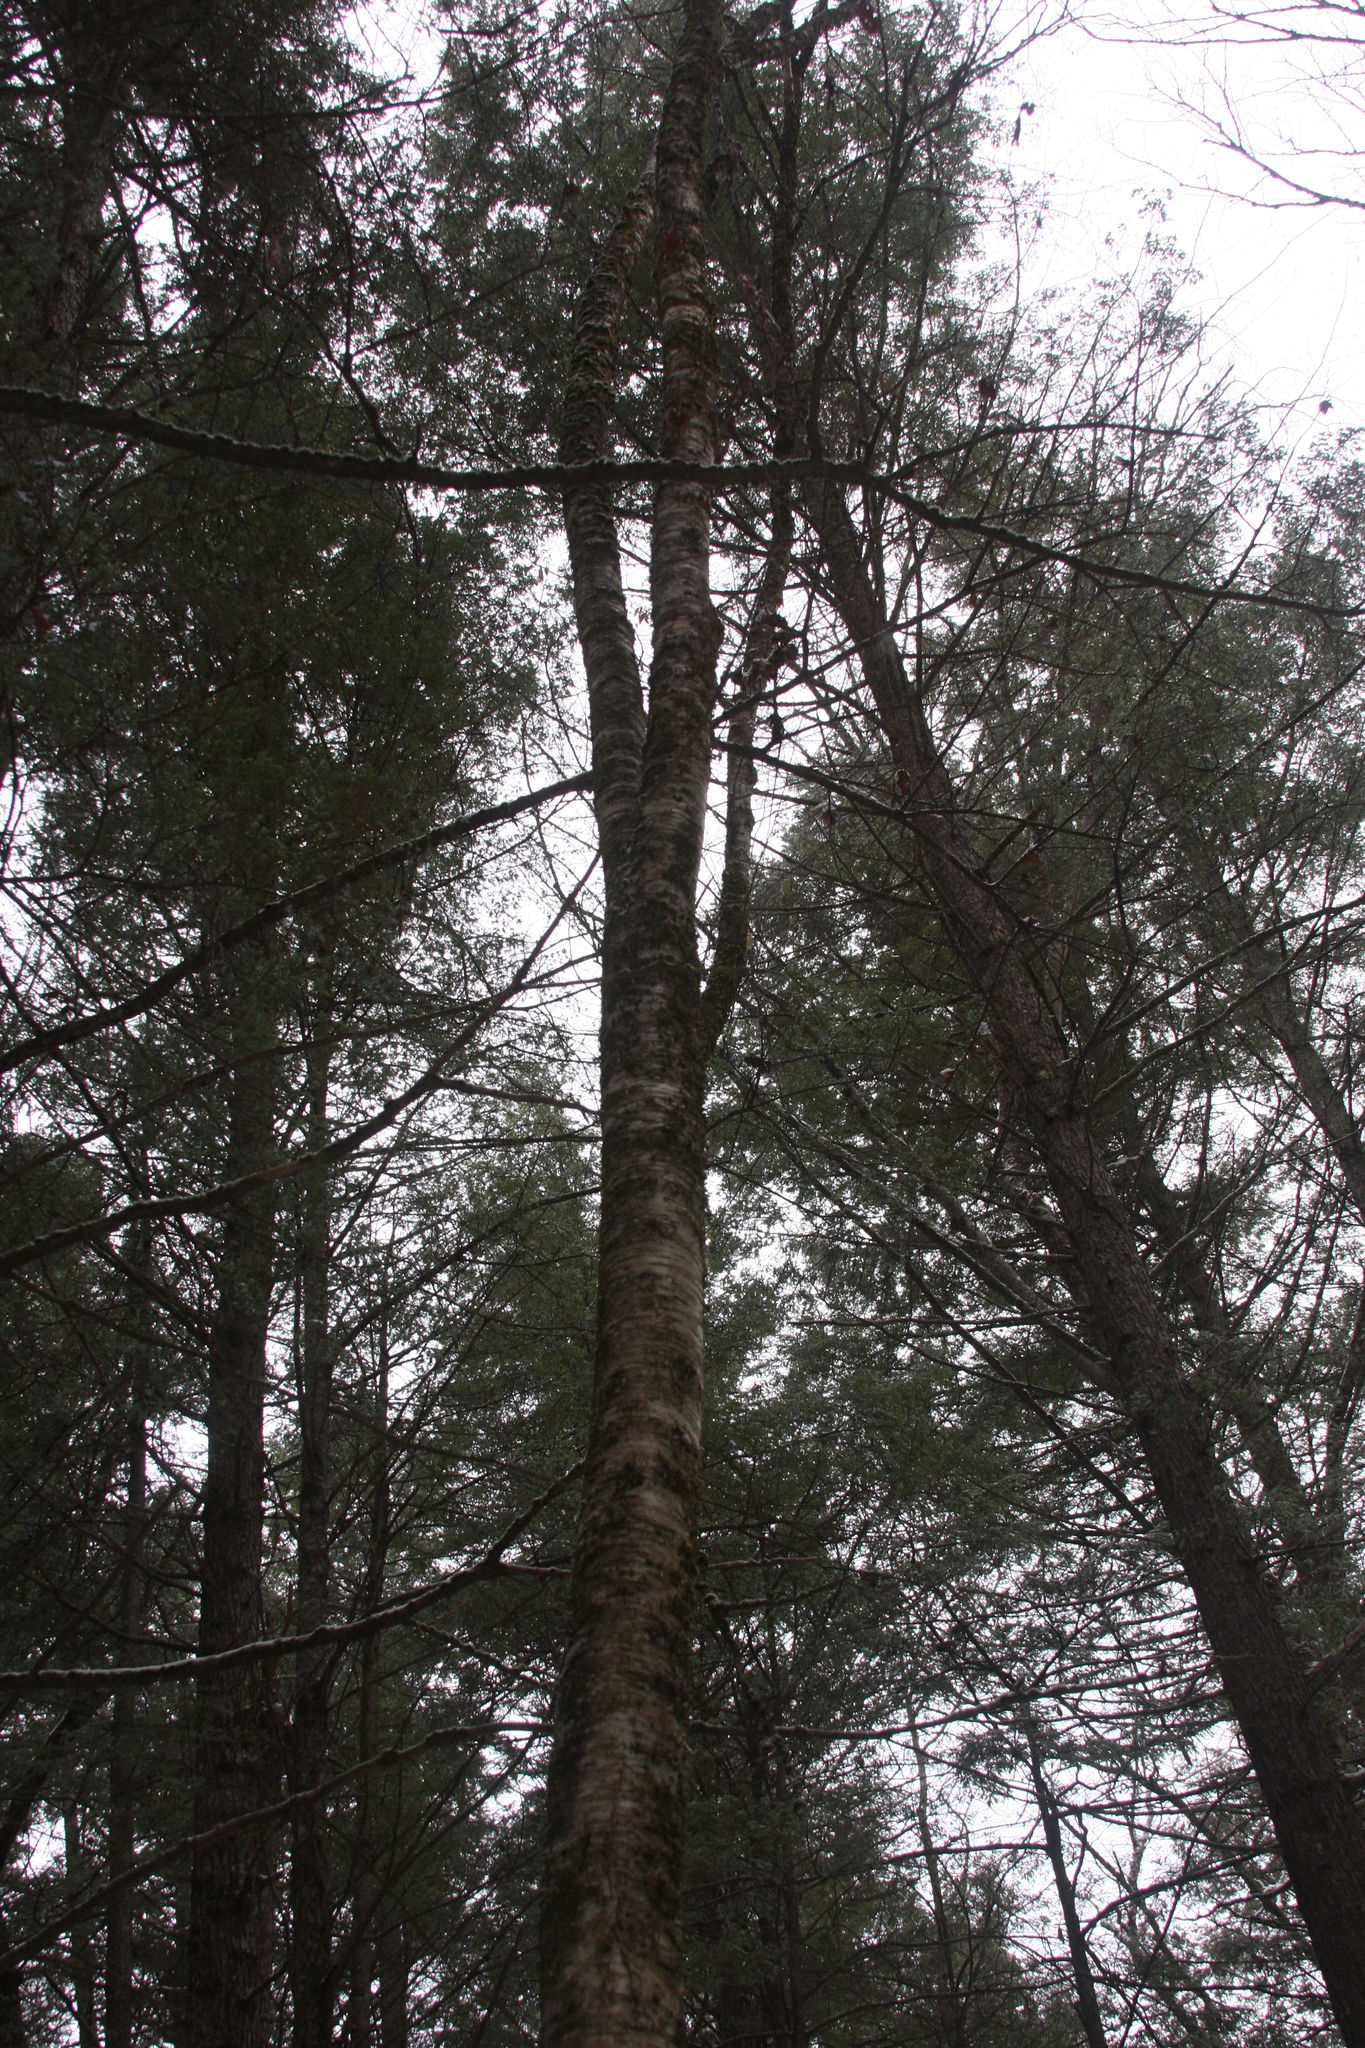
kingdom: Plantae
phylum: Tracheophyta
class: Magnoliopsida
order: Fagales
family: Betulaceae
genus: Betula
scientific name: Betula alleghaniensis
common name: Yellow birch
